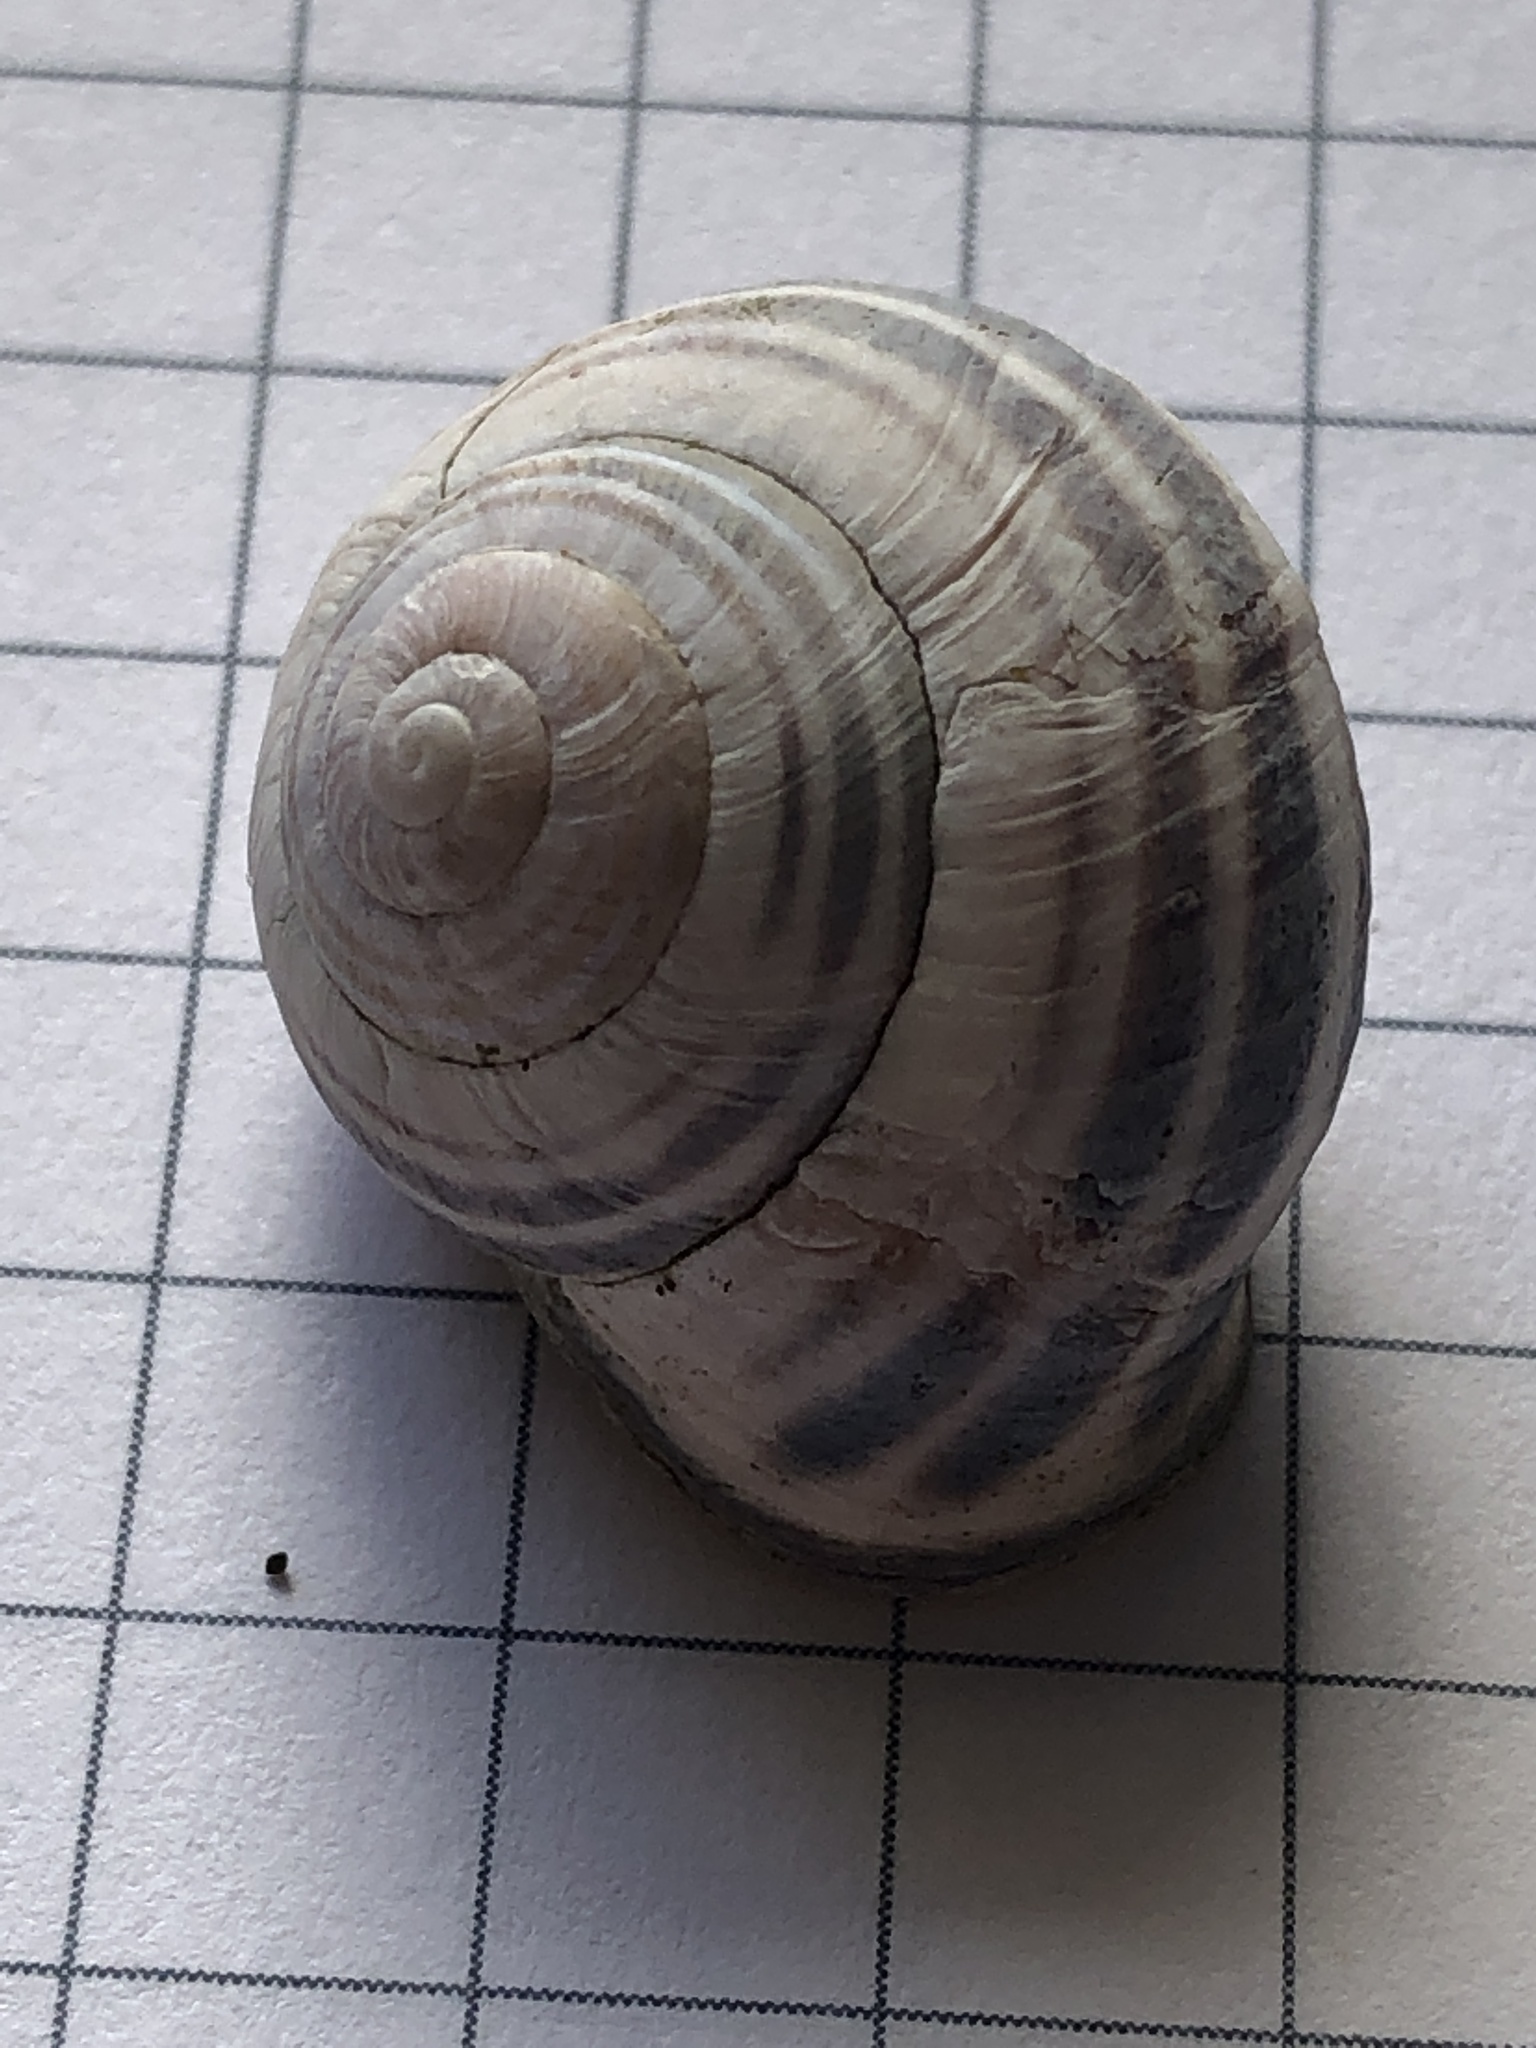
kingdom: Animalia
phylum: Mollusca
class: Gastropoda
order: Stylommatophora
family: Helicidae
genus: Cepaea
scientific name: Cepaea nemoralis
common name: Grovesnail
